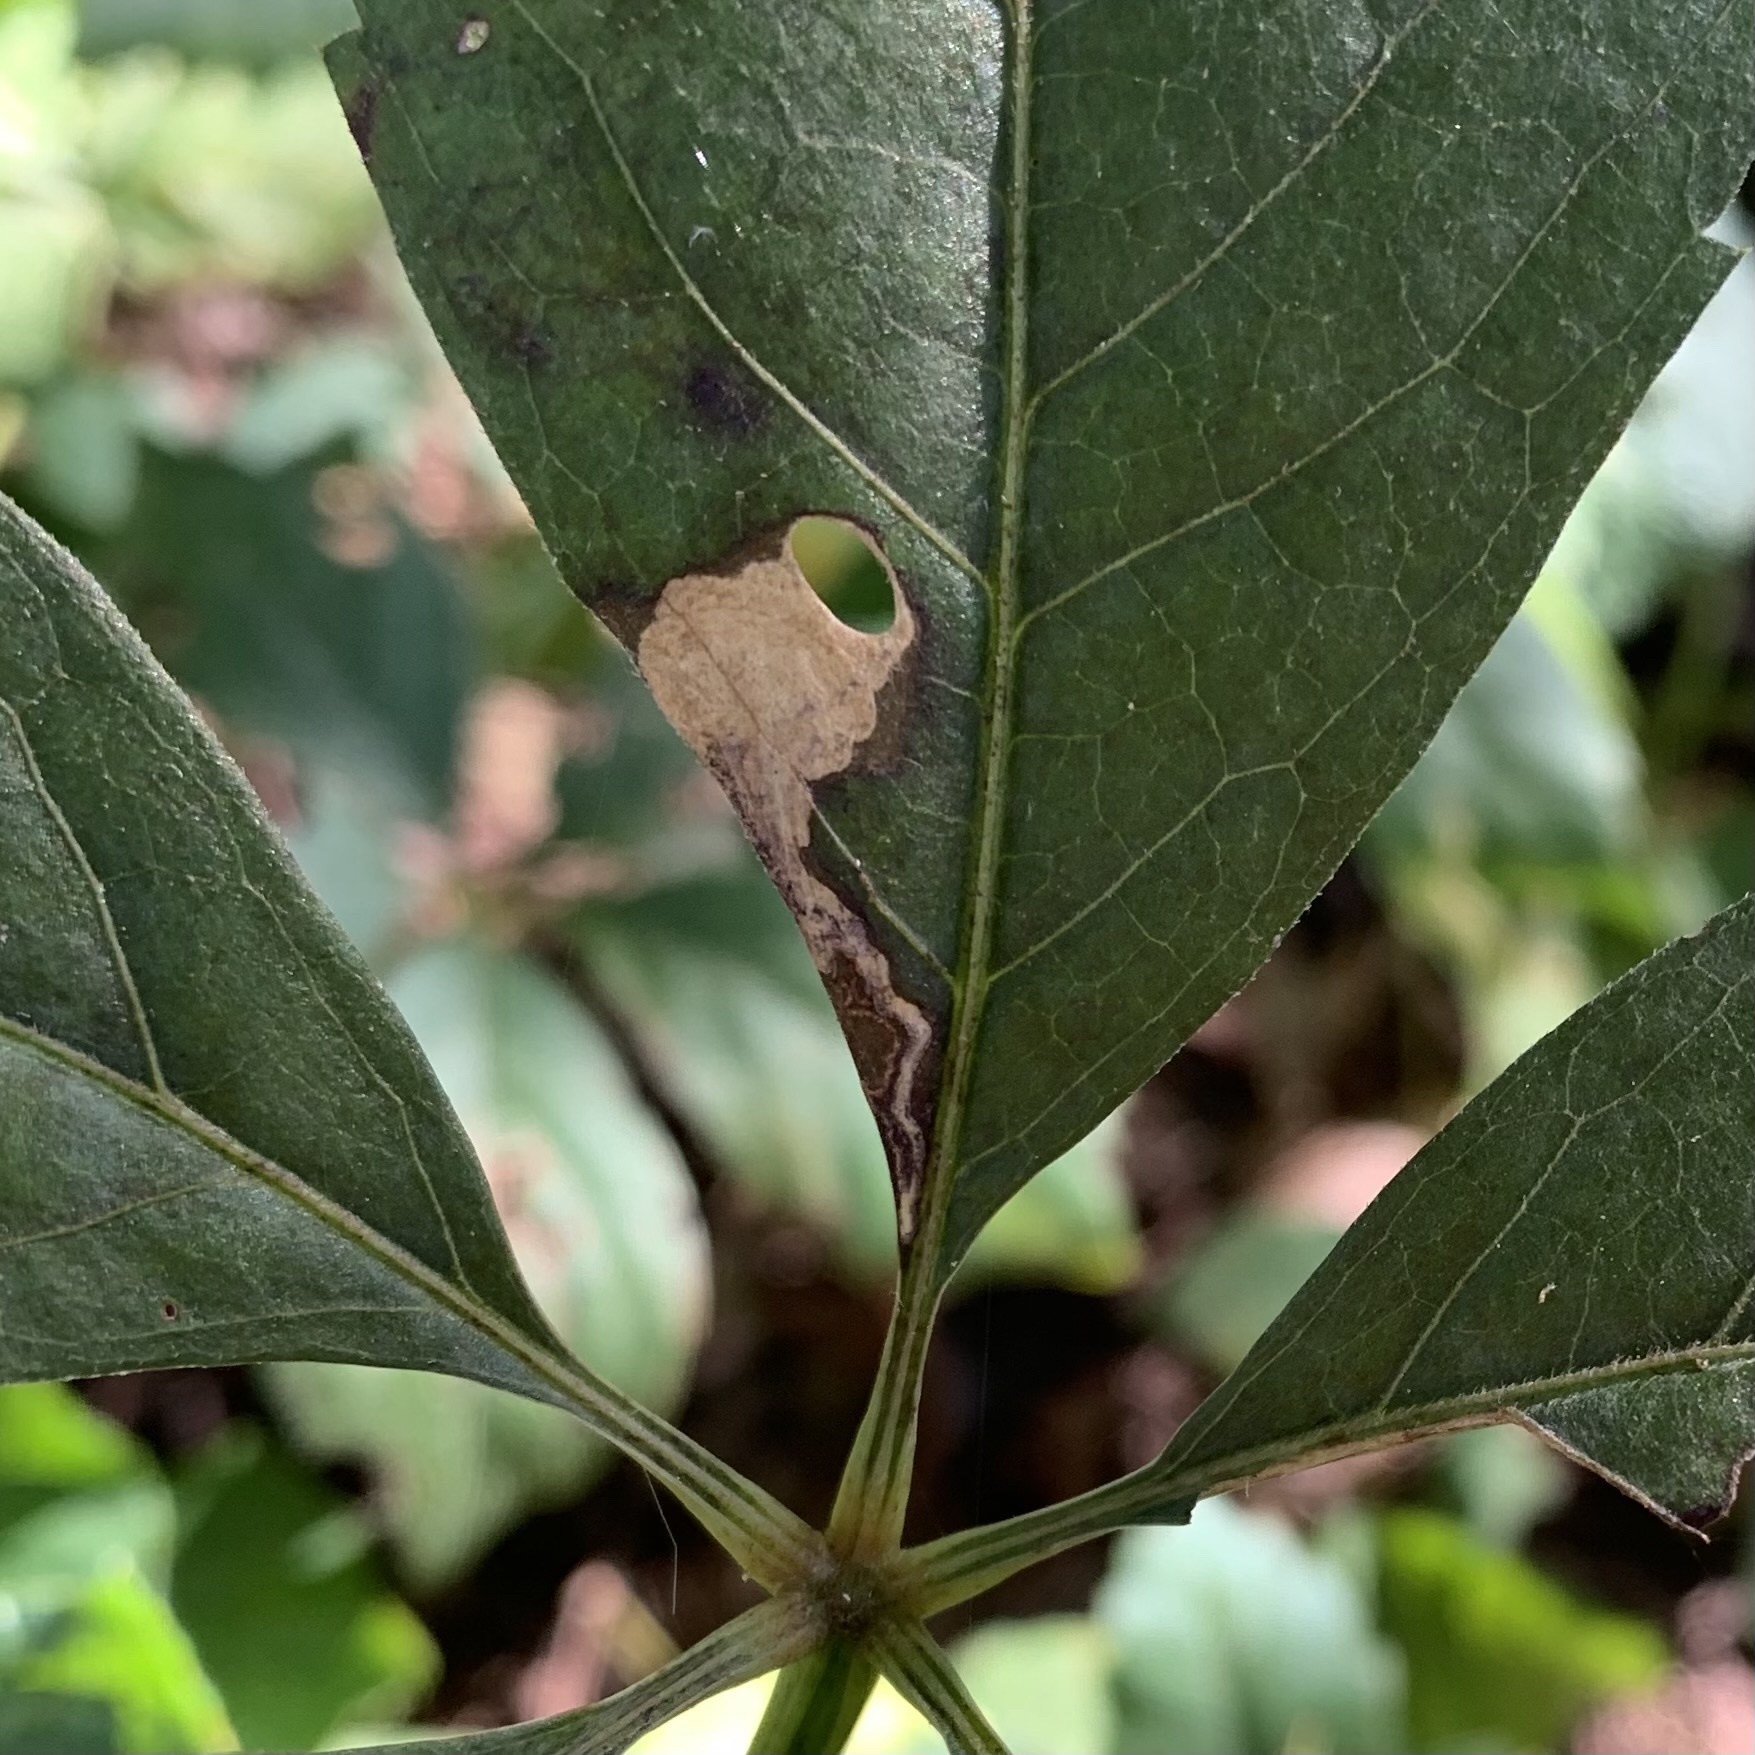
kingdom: Animalia
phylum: Arthropoda
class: Insecta
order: Lepidoptera
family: Heliozelidae
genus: Antispila
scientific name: Antispila ampelopsifoliella
